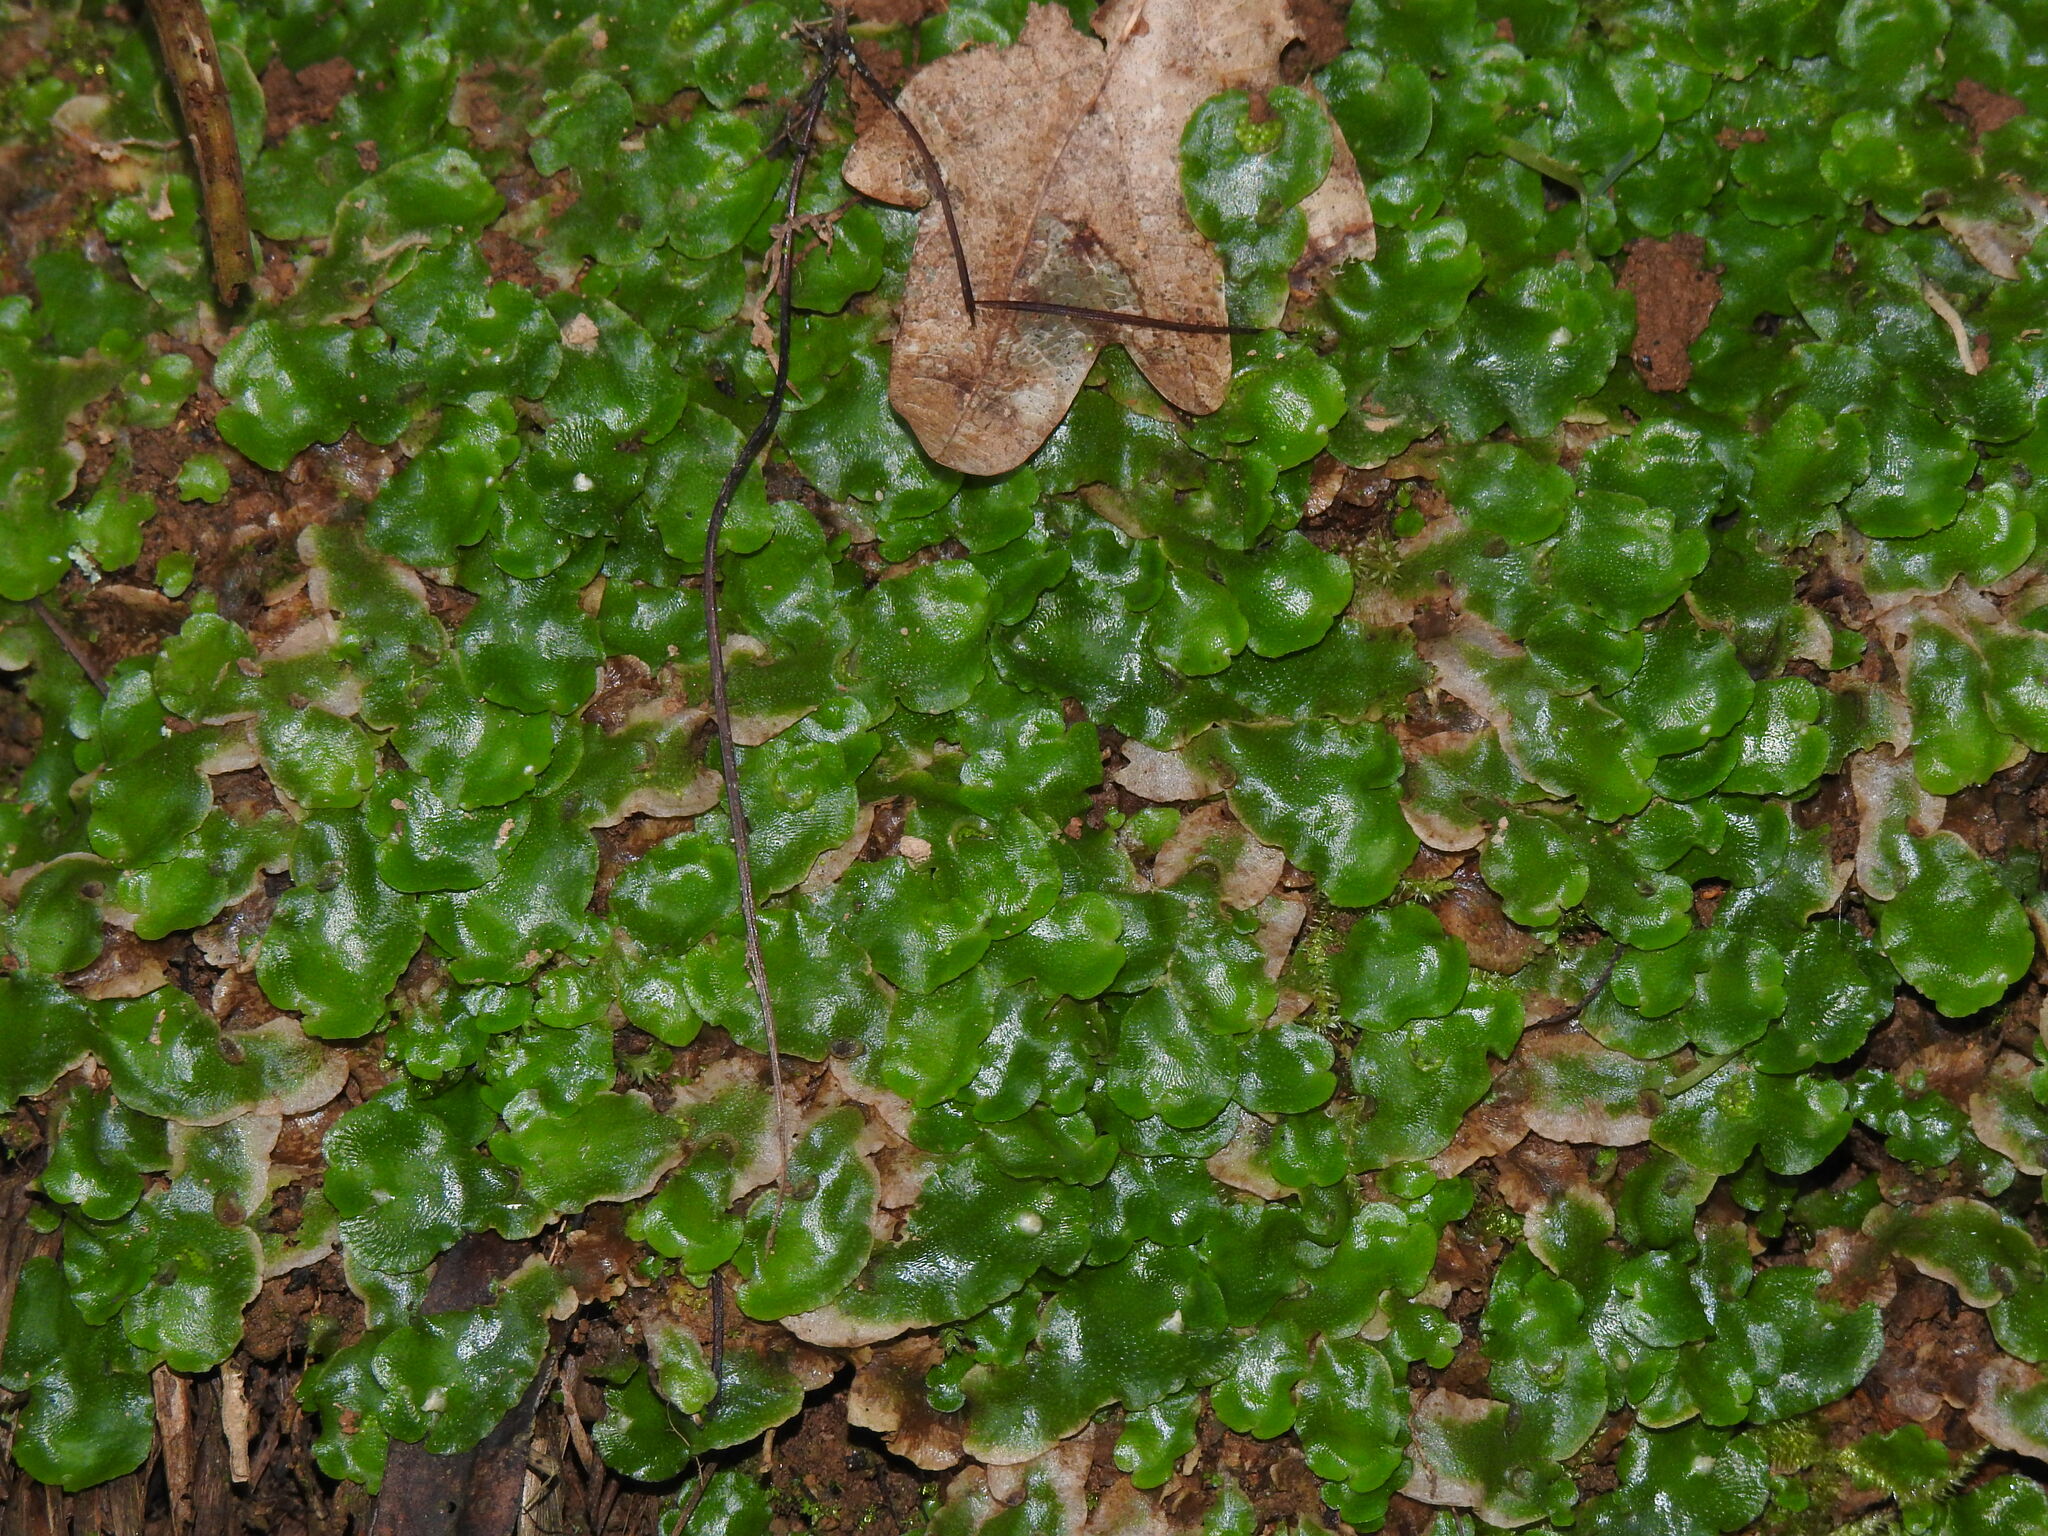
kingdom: Plantae
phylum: Marchantiophyta
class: Marchantiopsida
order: Lunulariales
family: Lunulariaceae
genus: Lunularia
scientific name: Lunularia cruciata
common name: Crescent-cup liverwort
